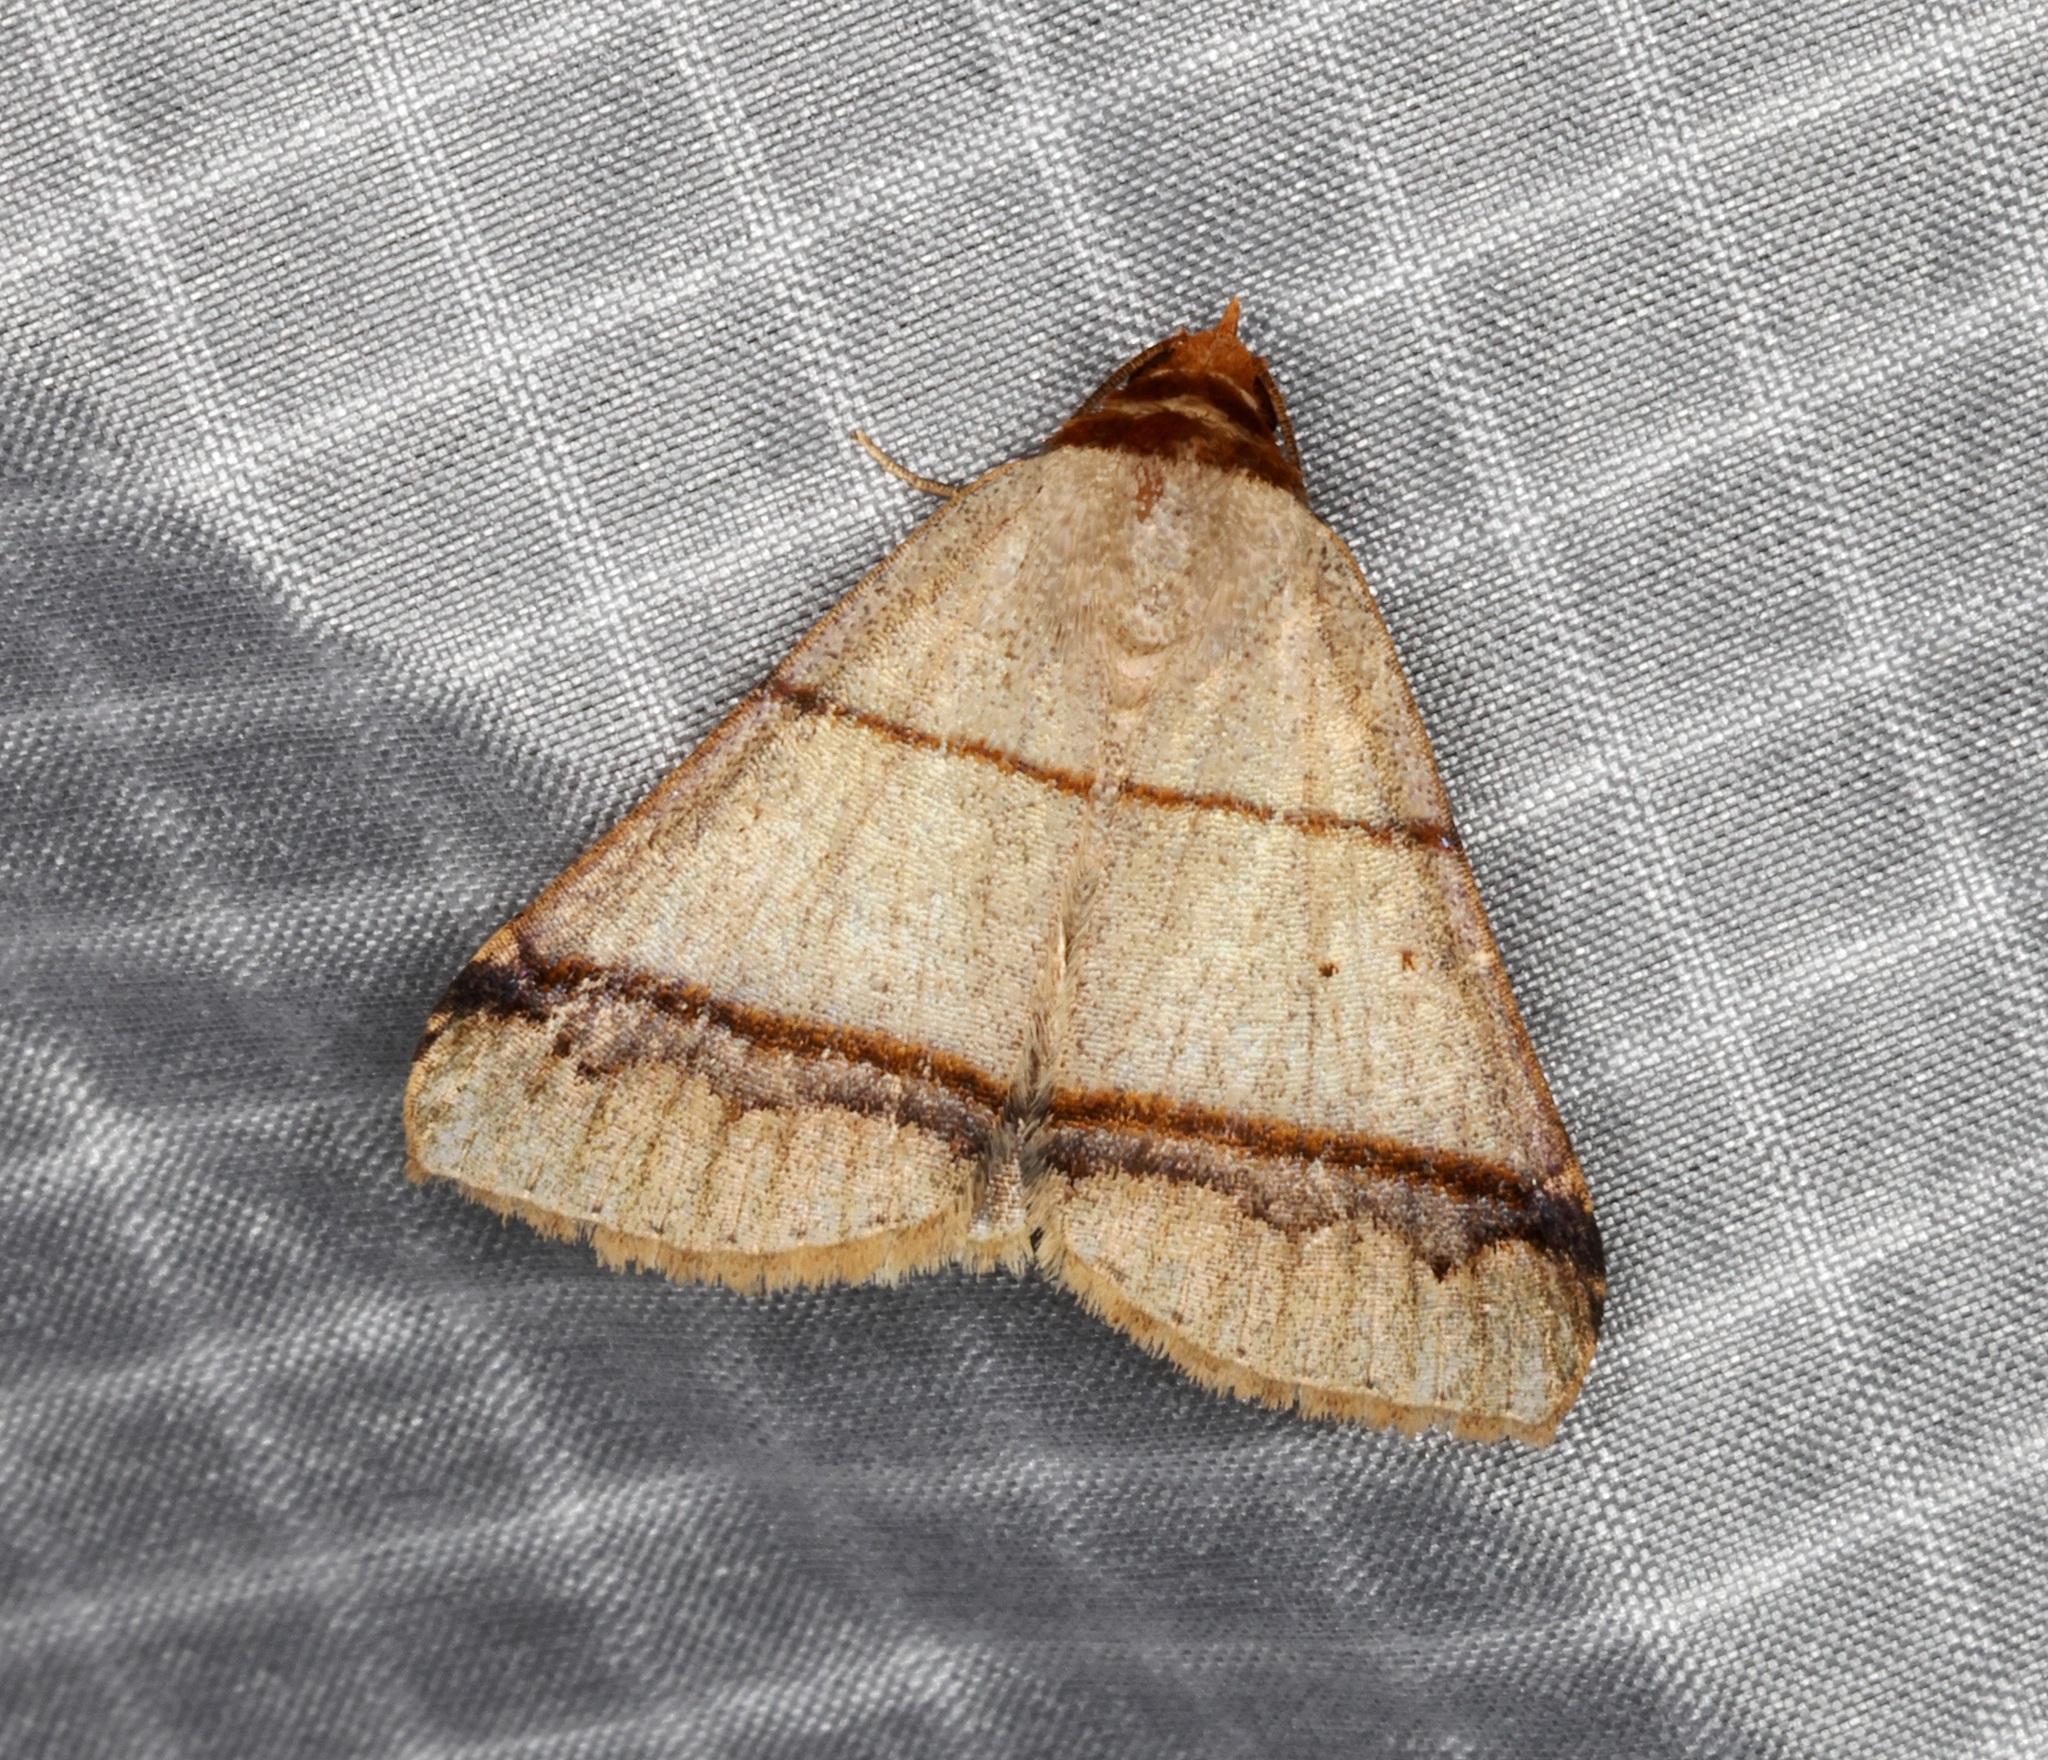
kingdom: Animalia
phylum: Arthropoda
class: Insecta
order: Lepidoptera
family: Erebidae
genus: Plecoptera
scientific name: Plecoptera recta
